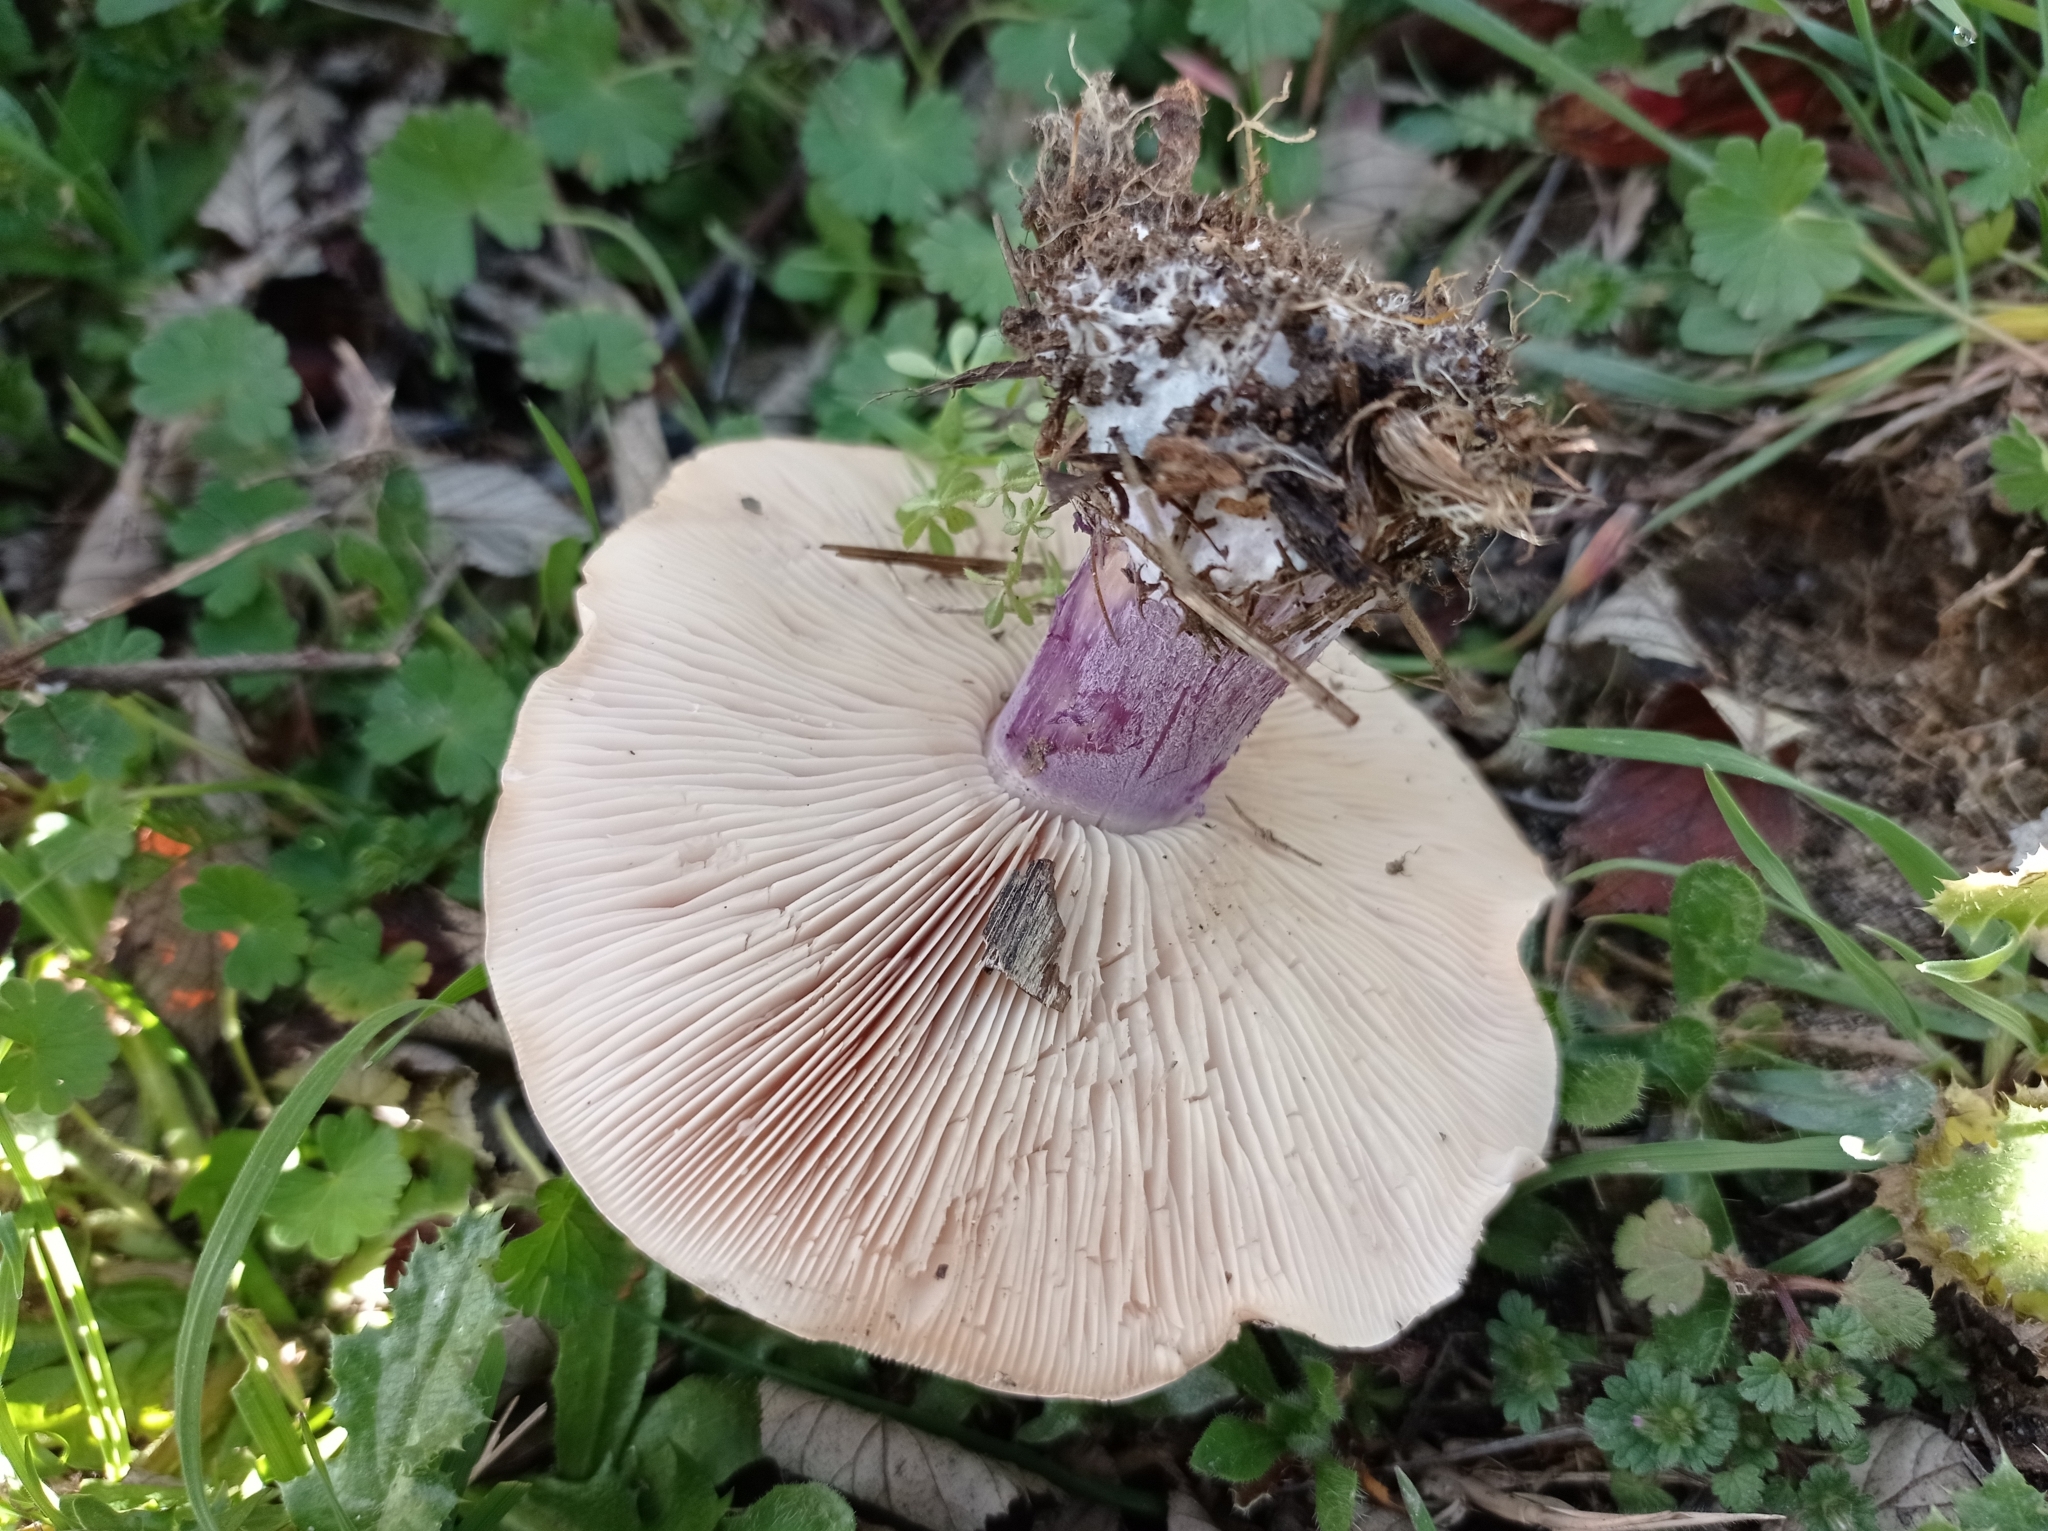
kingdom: Fungi
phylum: Basidiomycota
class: Agaricomycetes
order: Agaricales
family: Omphalotaceae
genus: Collybiopsis
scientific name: Collybiopsis peronata
